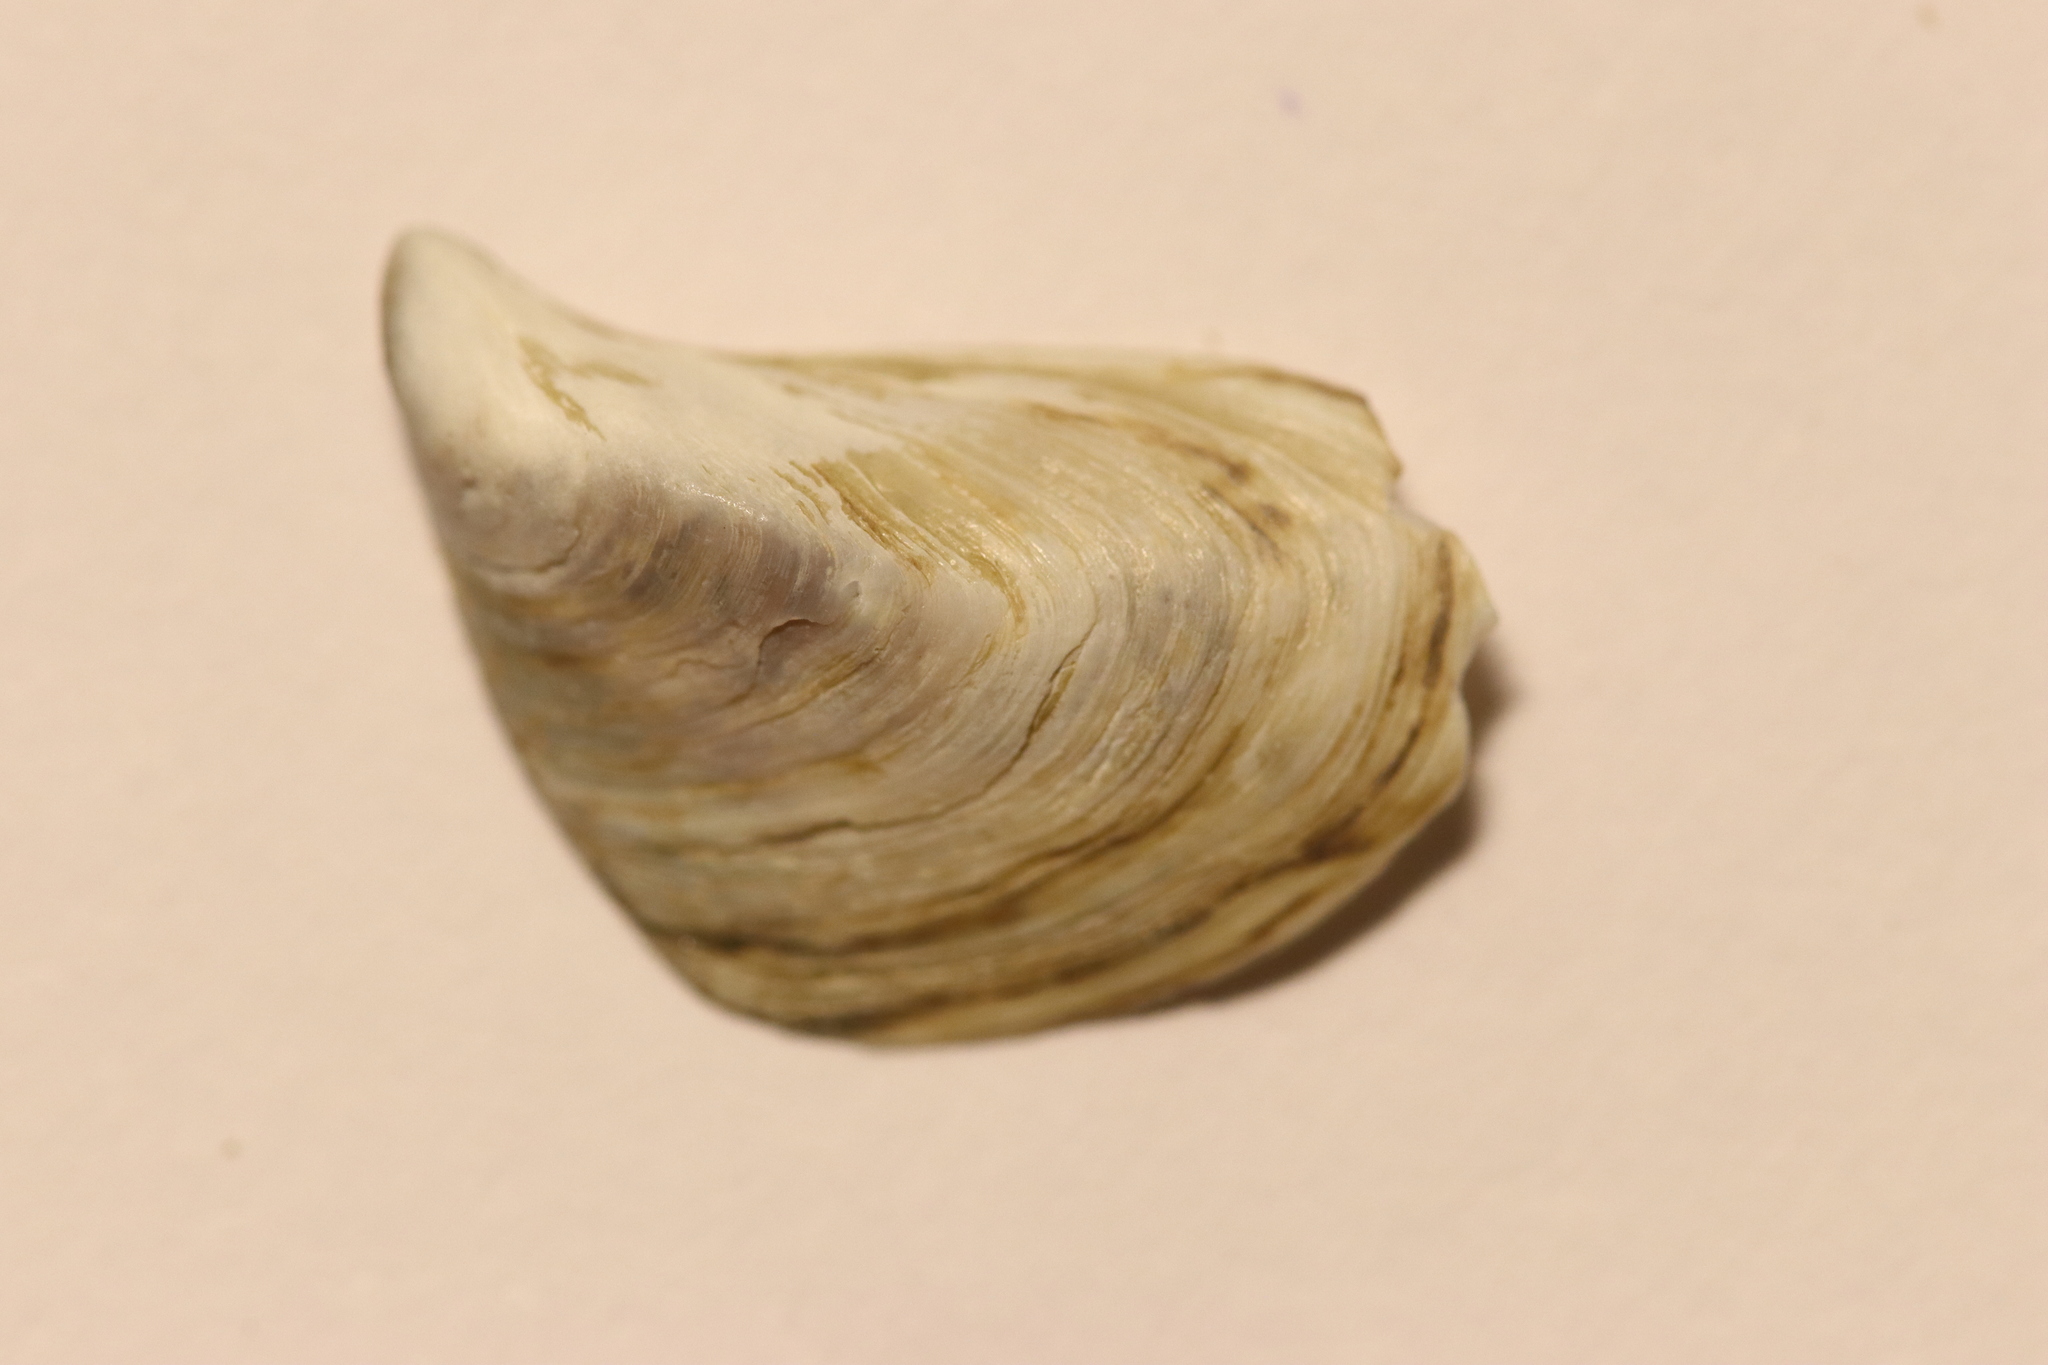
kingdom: Animalia
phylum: Mollusca
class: Bivalvia
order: Myida
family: Dreissenidae
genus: Dreissena
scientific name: Dreissena bugensis
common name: Quagga mussel
